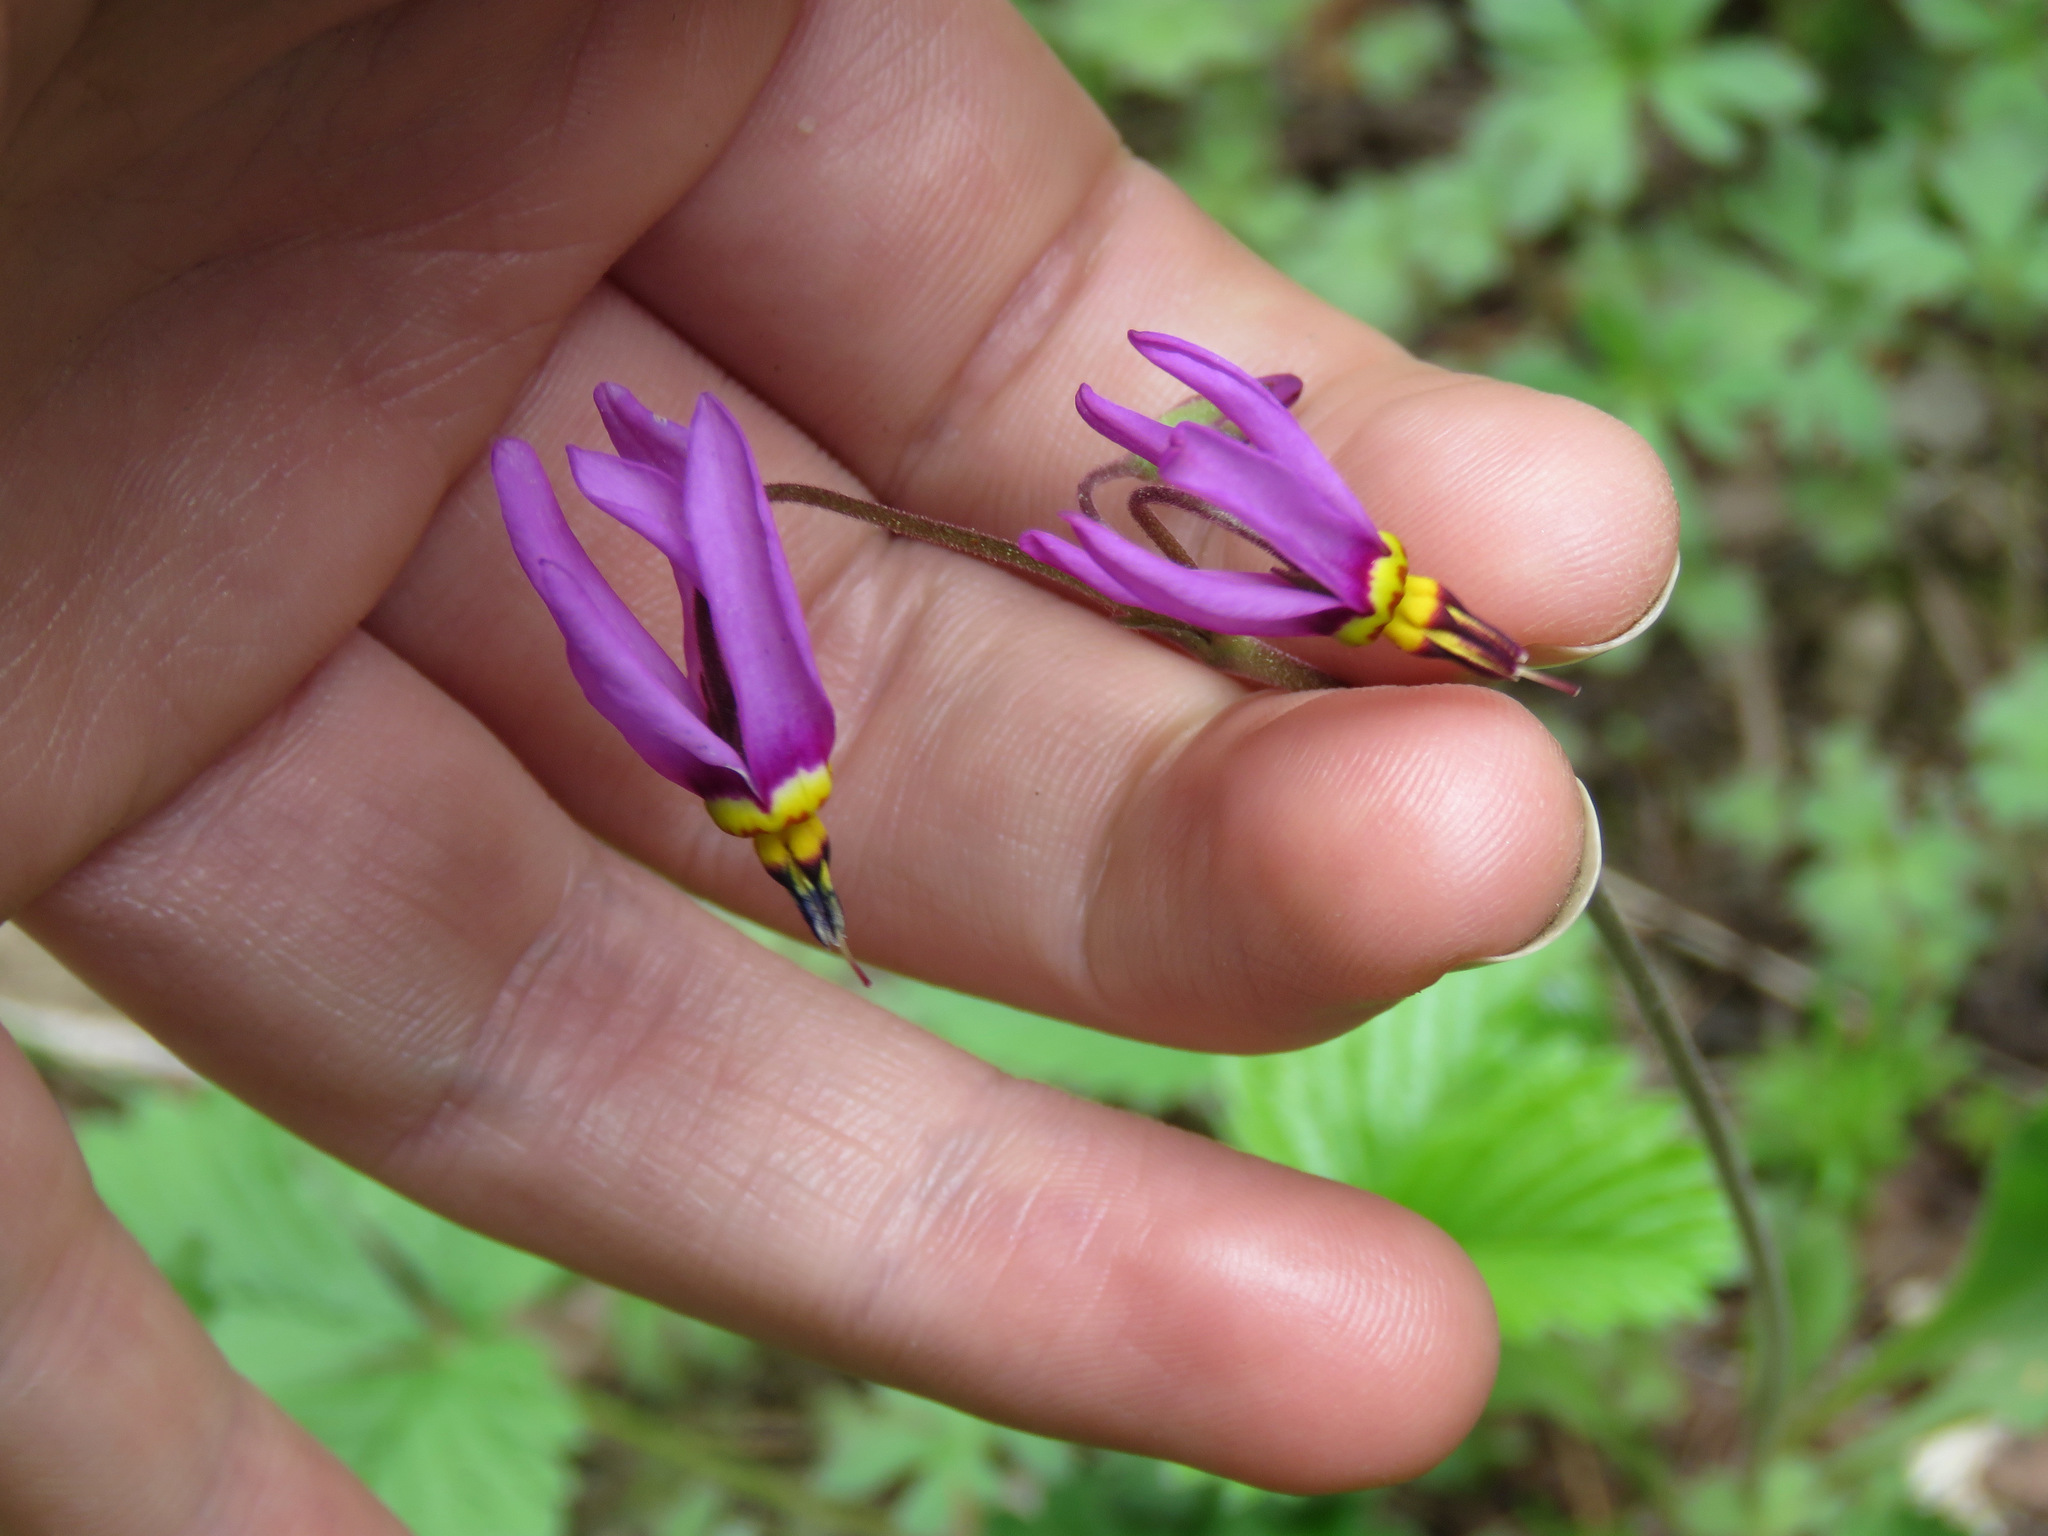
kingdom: Plantae
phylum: Tracheophyta
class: Magnoliopsida
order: Ericales
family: Primulaceae
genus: Dodecatheon
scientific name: Dodecatheon pulchellum
